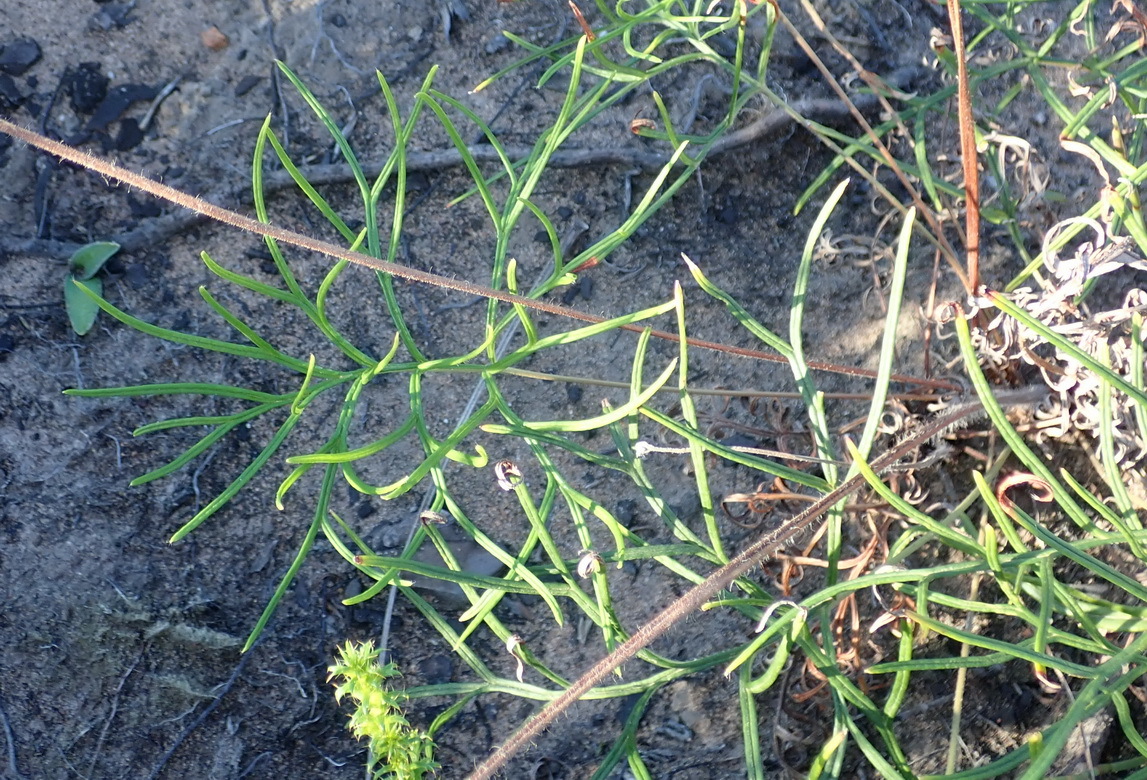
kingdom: Plantae
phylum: Tracheophyta
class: Magnoliopsida
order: Geraniales
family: Geraniaceae
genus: Pelargonium
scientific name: Pelargonium caffrum
